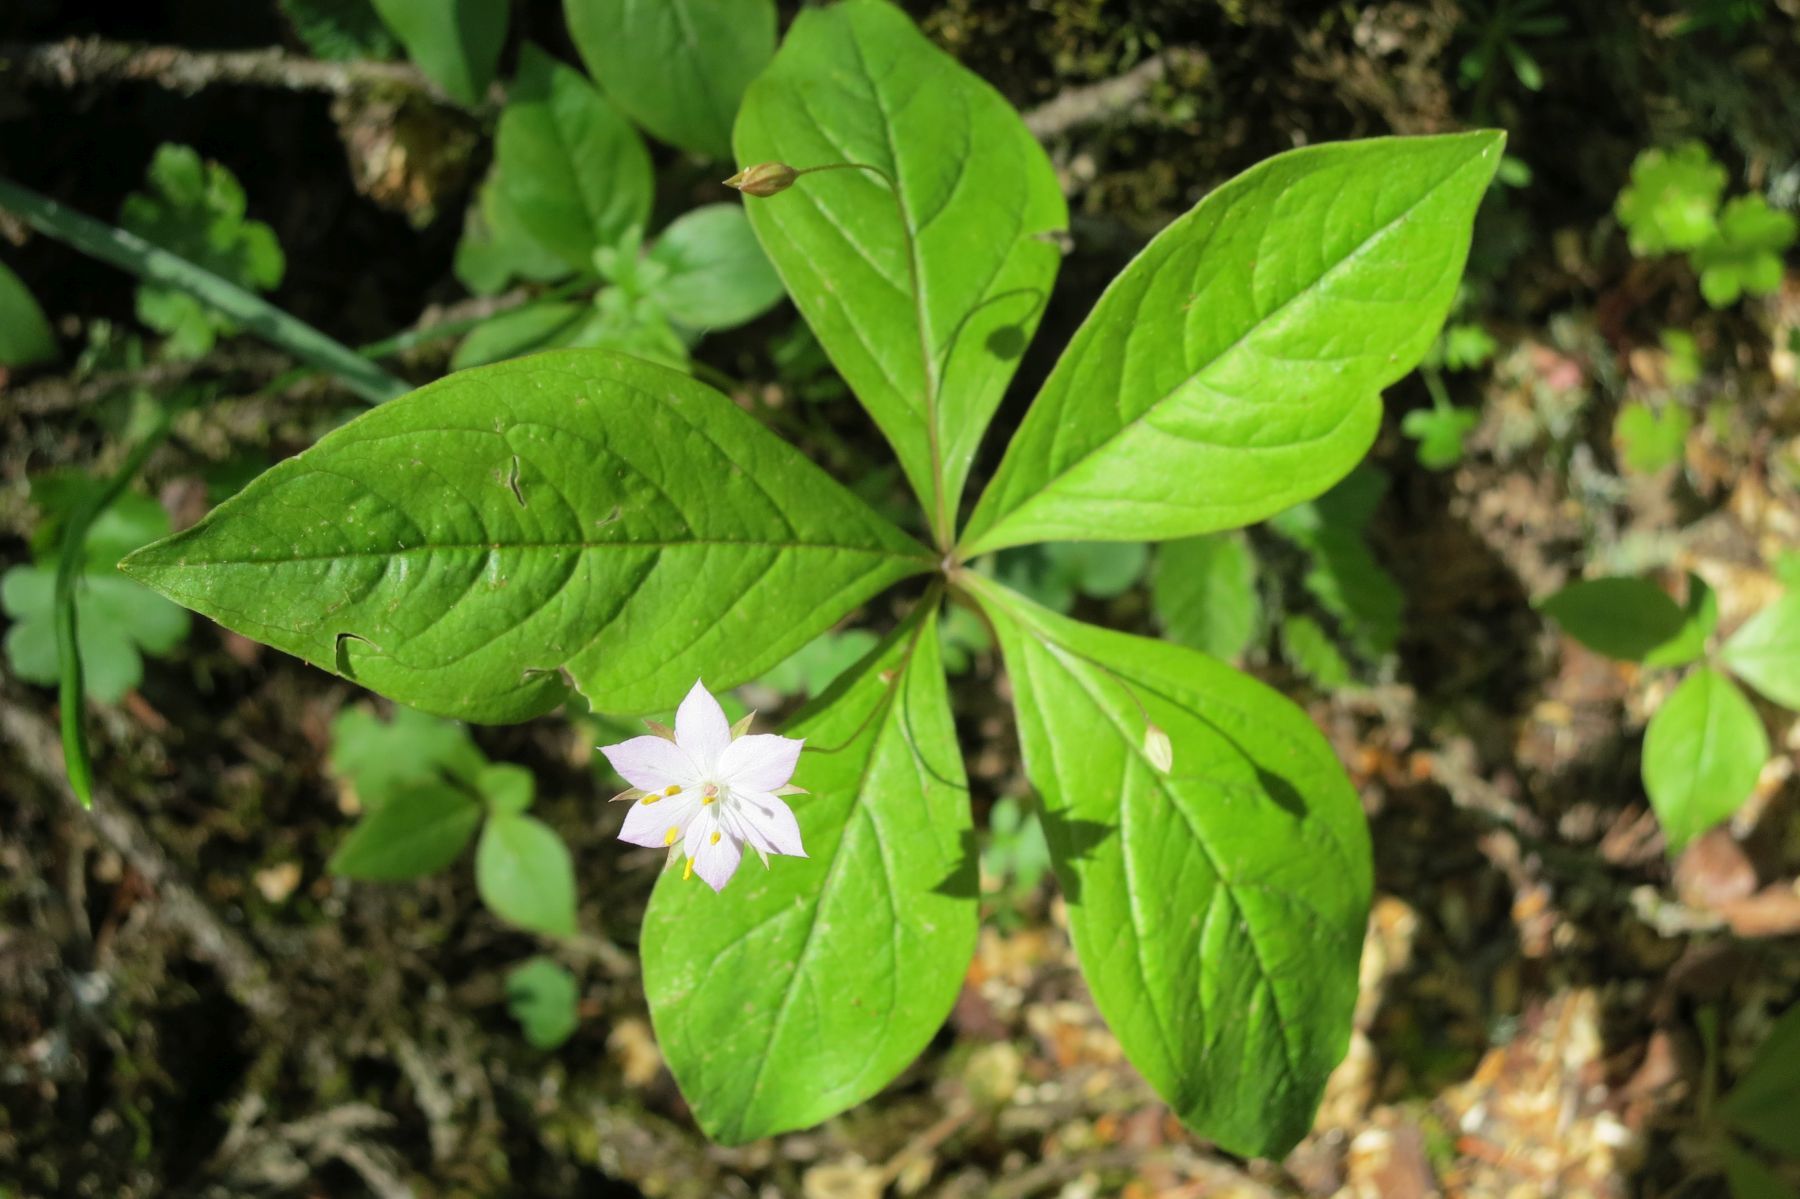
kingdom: Plantae
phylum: Tracheophyta
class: Magnoliopsida
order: Ericales
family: Primulaceae
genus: Lysimachia
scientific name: Lysimachia latifolia
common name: Pacific starflower
